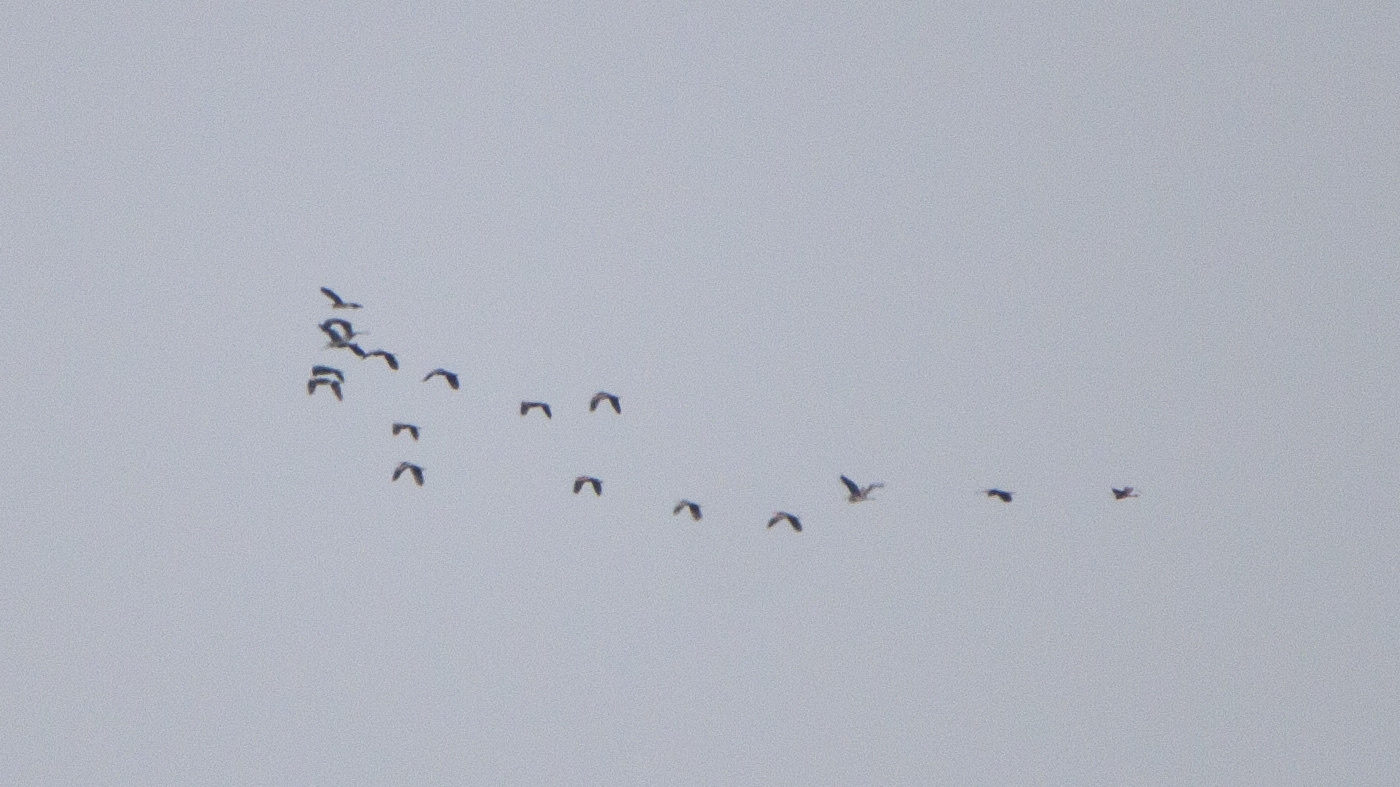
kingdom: Animalia
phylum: Chordata
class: Aves
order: Pelecaniformes
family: Ardeidae
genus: Ardea
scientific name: Ardea cinerea
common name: Grey heron
